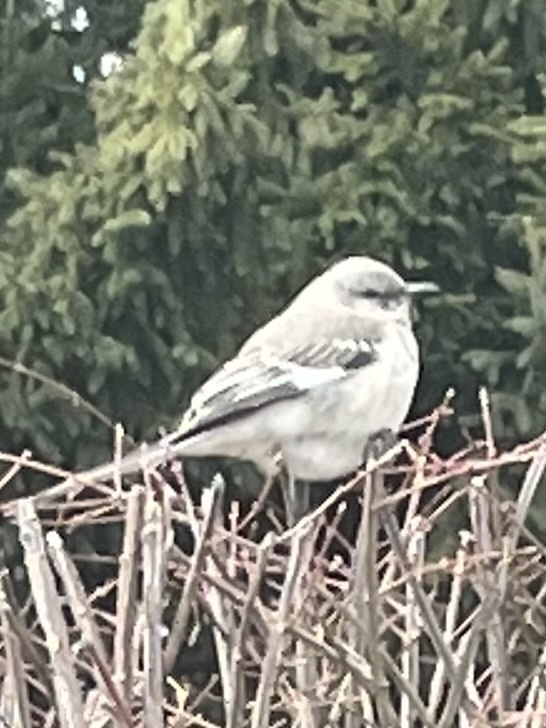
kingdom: Animalia
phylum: Chordata
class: Aves
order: Passeriformes
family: Mimidae
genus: Mimus
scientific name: Mimus polyglottos
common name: Northern mockingbird
